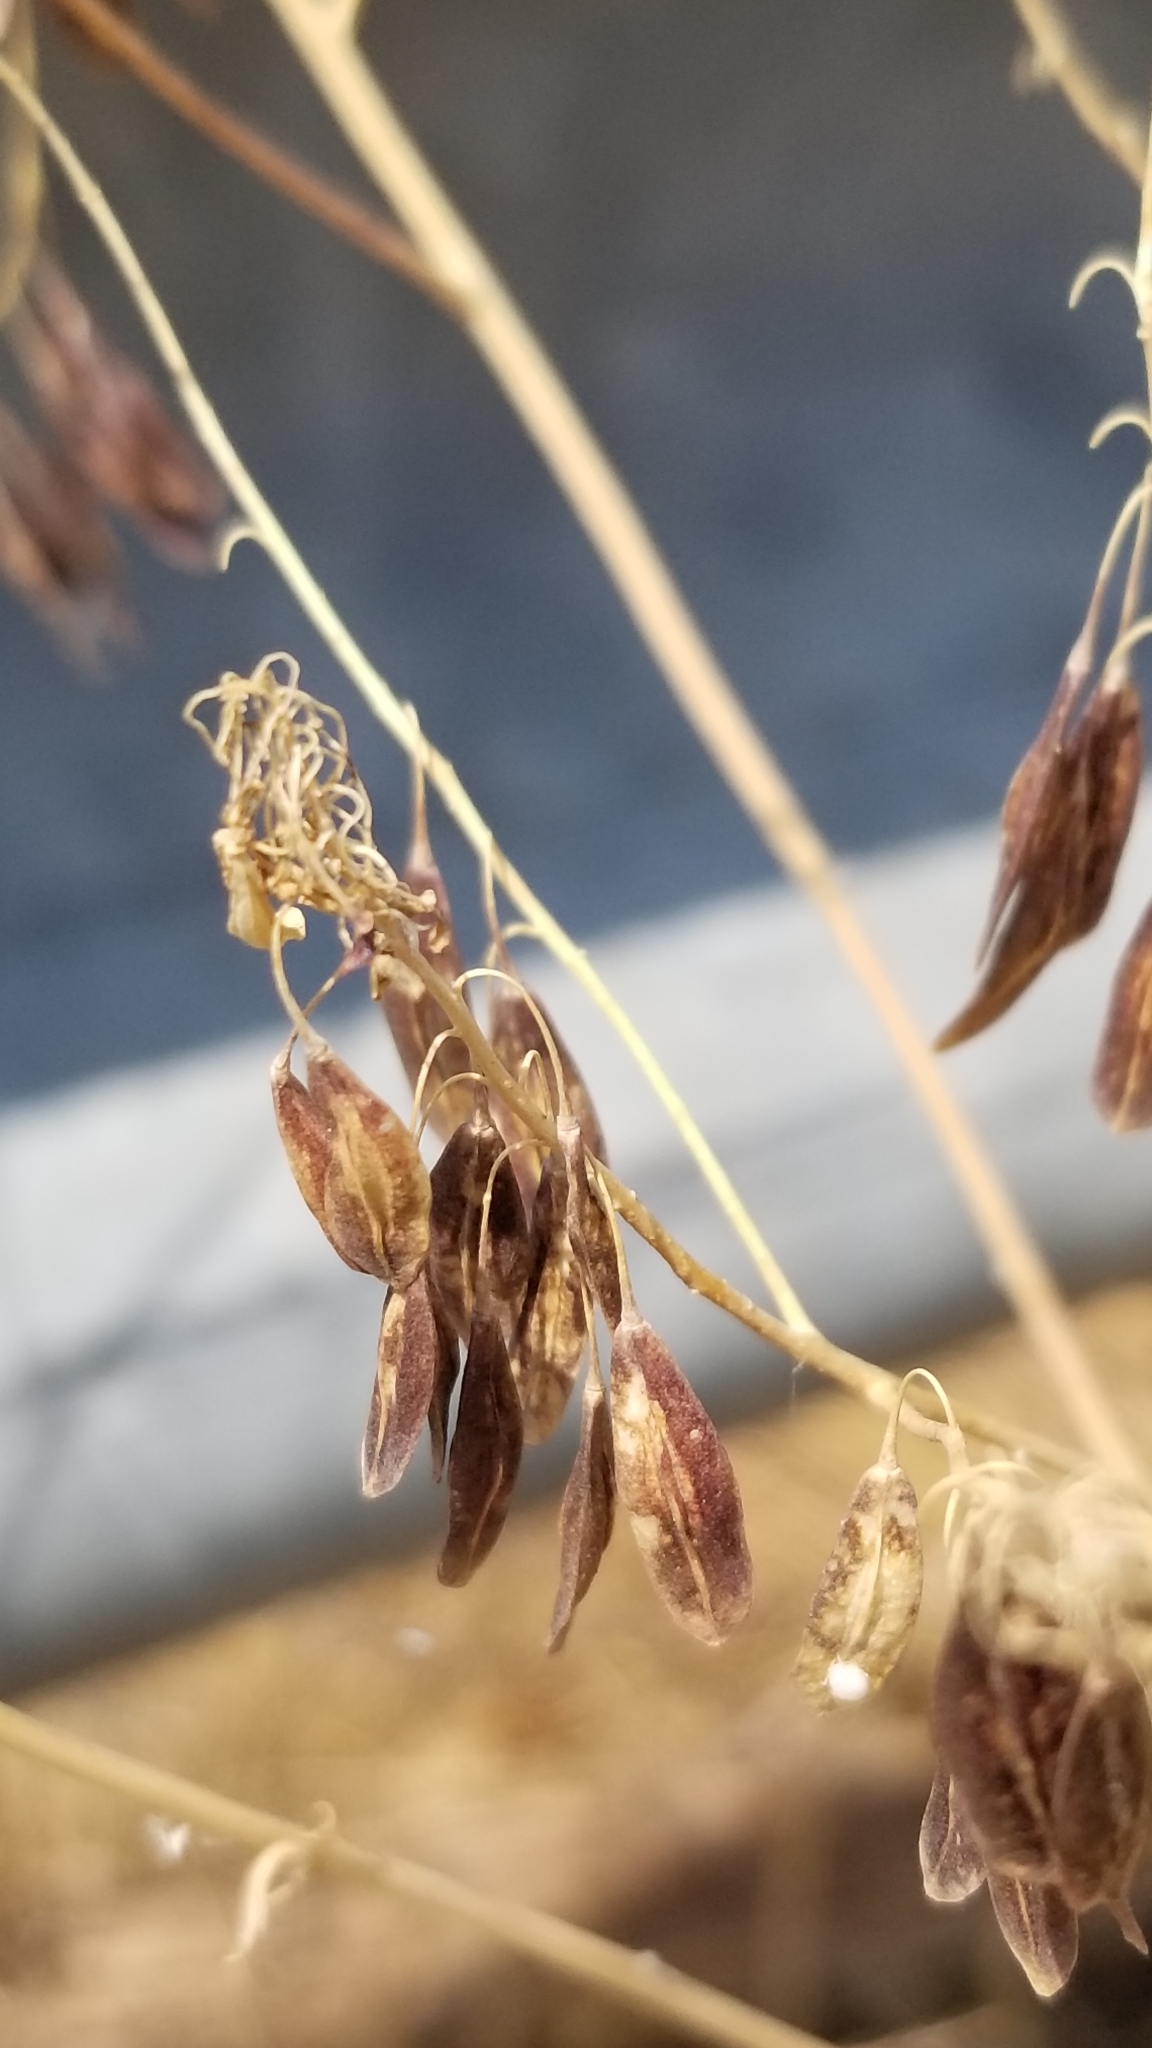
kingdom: Plantae
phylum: Tracheophyta
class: Magnoliopsida
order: Brassicales
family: Brassicaceae
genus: Isatis
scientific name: Isatis tinctoria
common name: Woad
